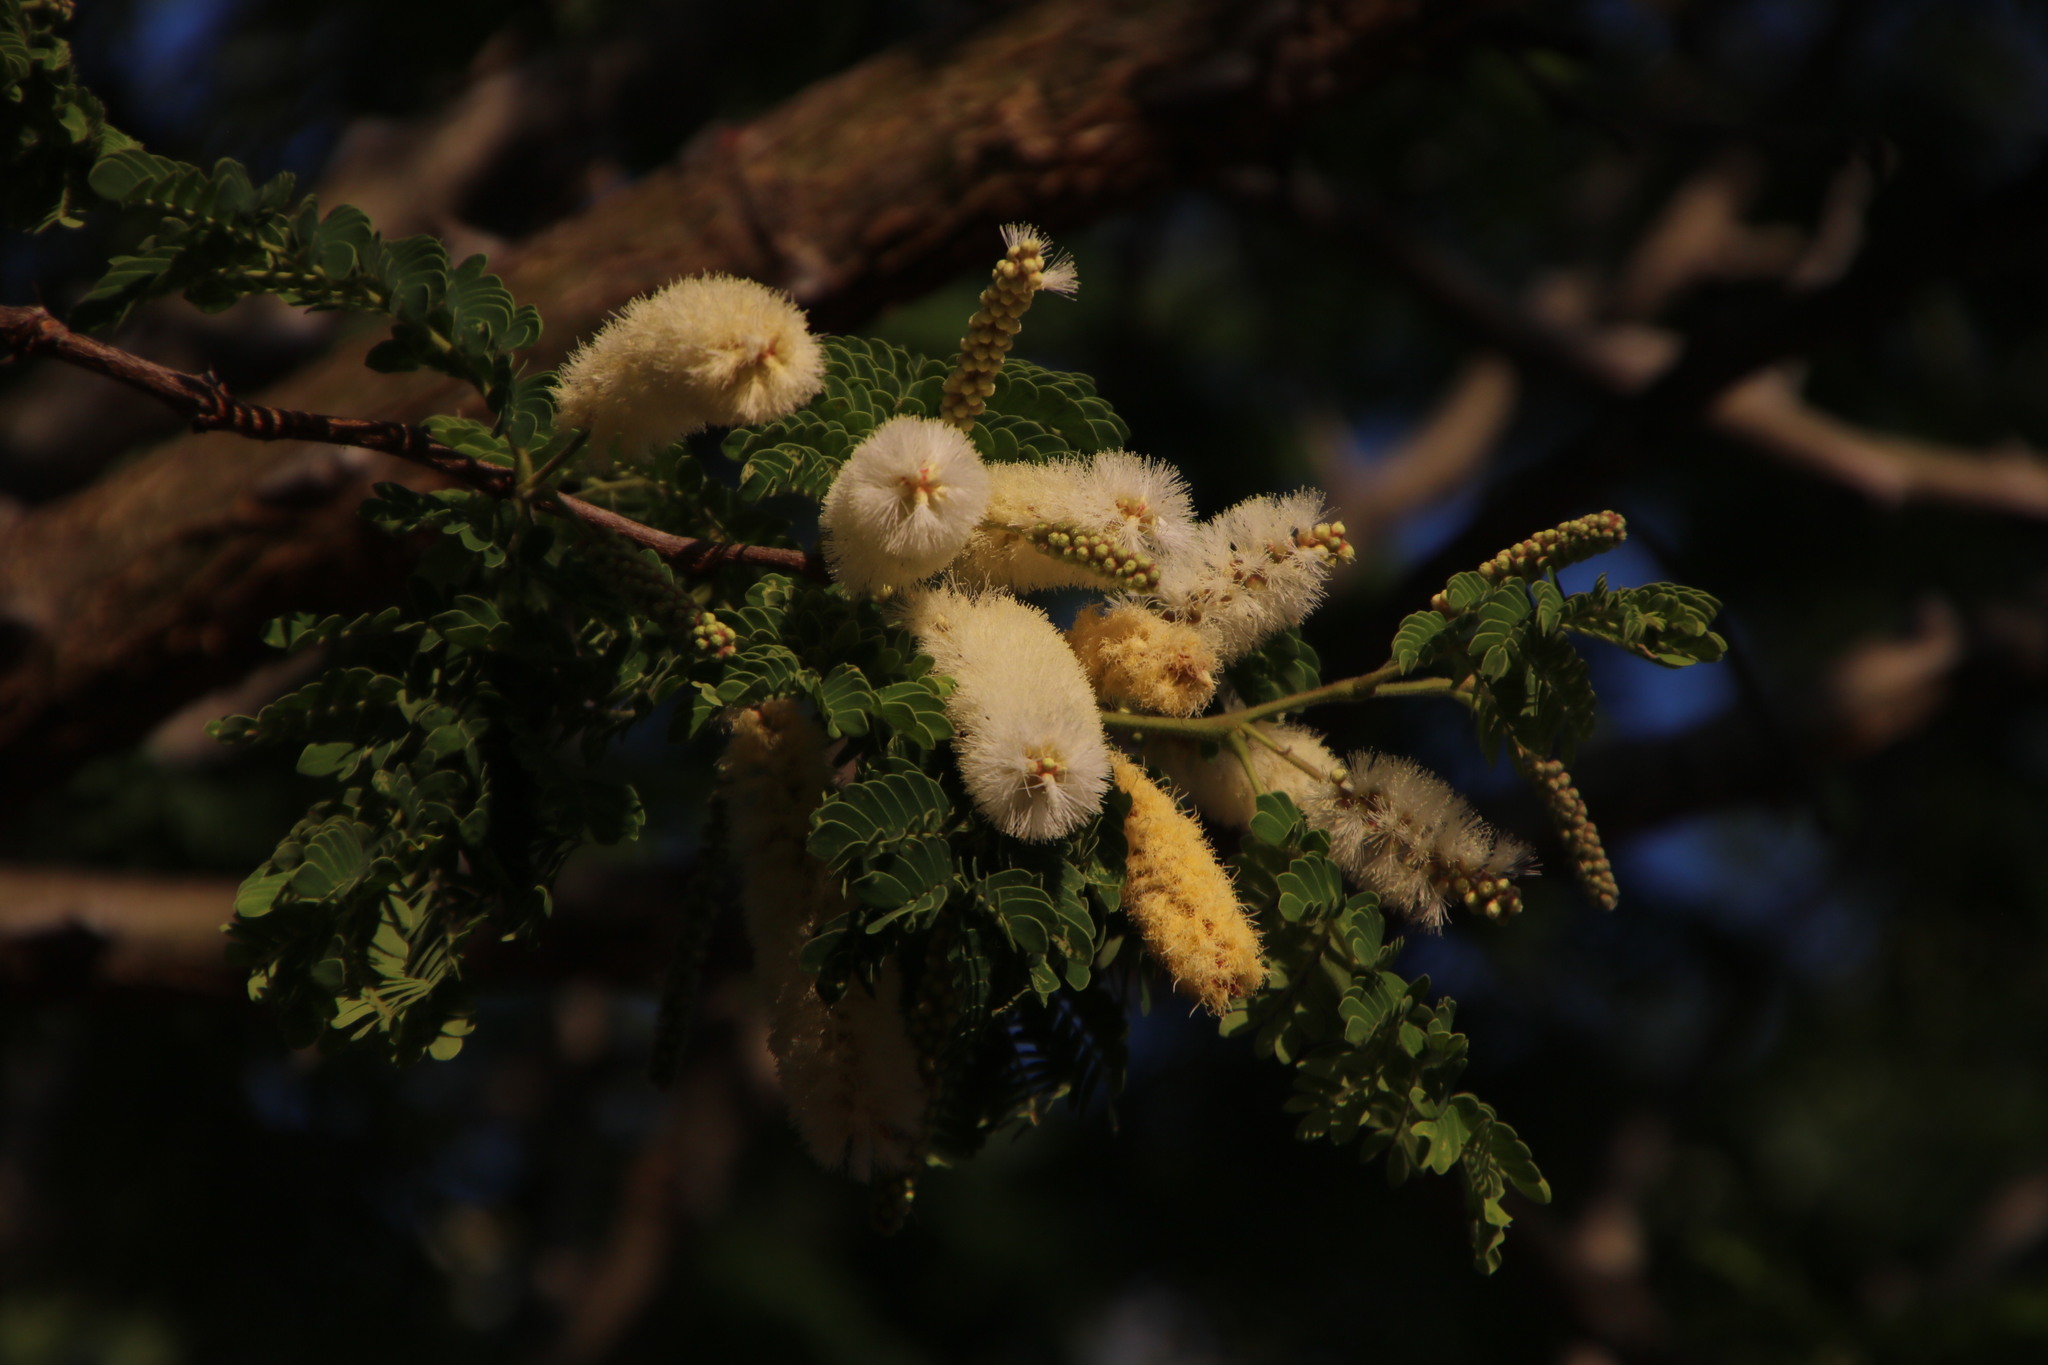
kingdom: Plantae
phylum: Tracheophyta
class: Magnoliopsida
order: Fabales
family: Fabaceae
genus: Senegalia
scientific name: Senegalia galpinii
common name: Monkey-thorn
